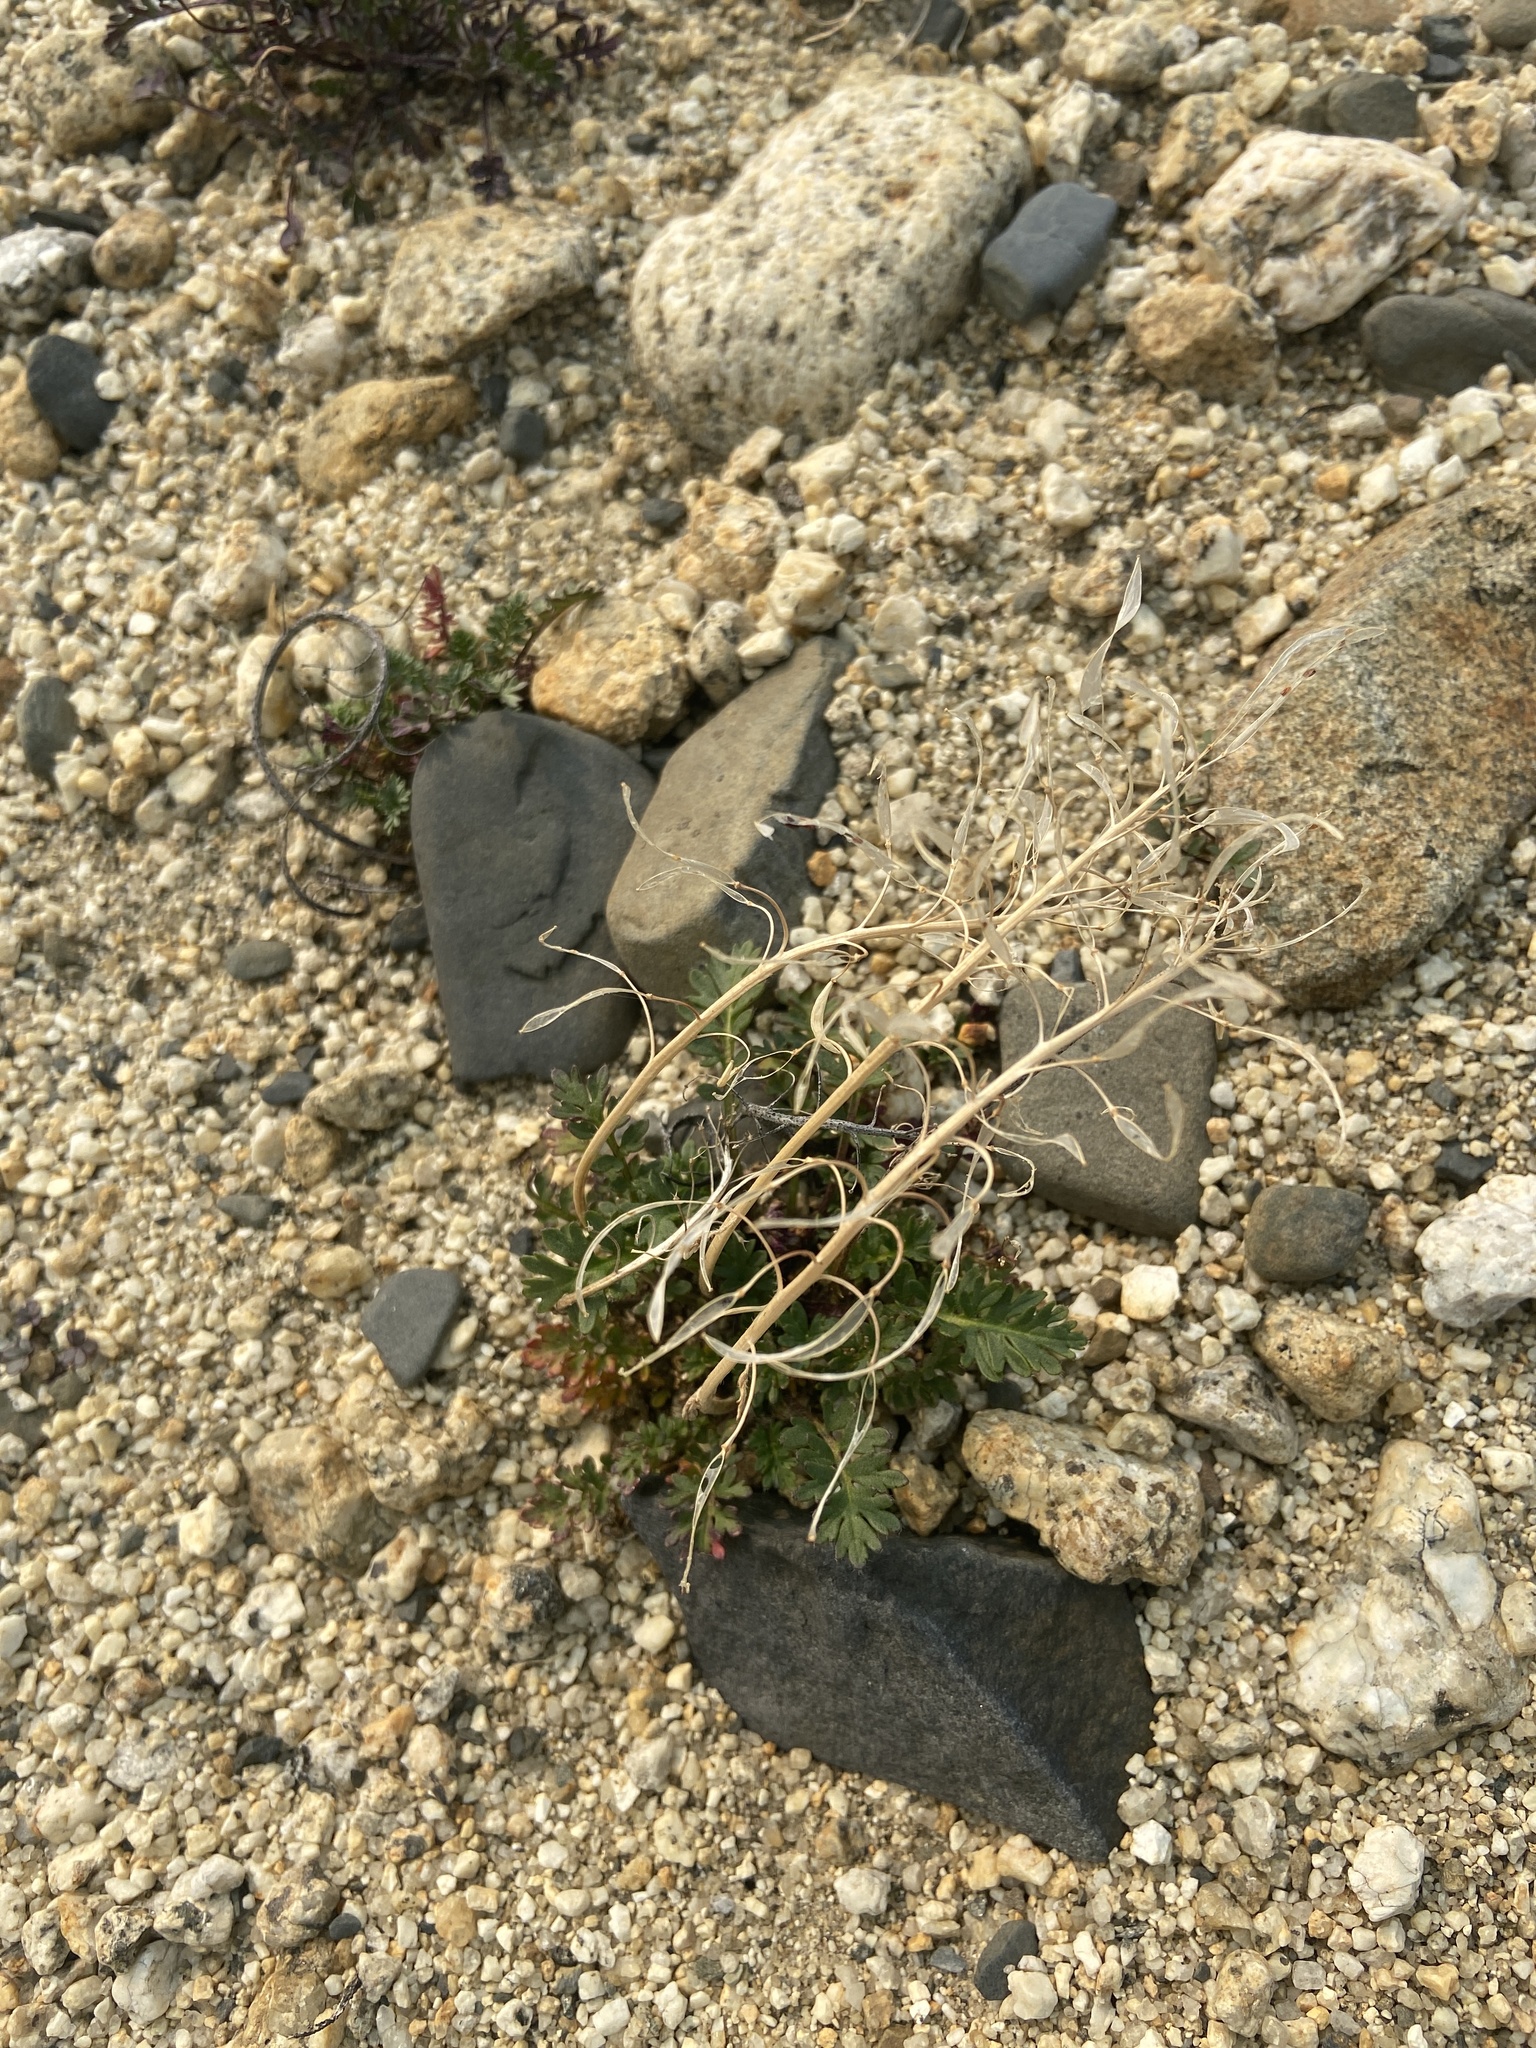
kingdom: Plantae
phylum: Tracheophyta
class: Magnoliopsida
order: Brassicales
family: Brassicaceae
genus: Smelowskia
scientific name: Smelowskia jacutica
